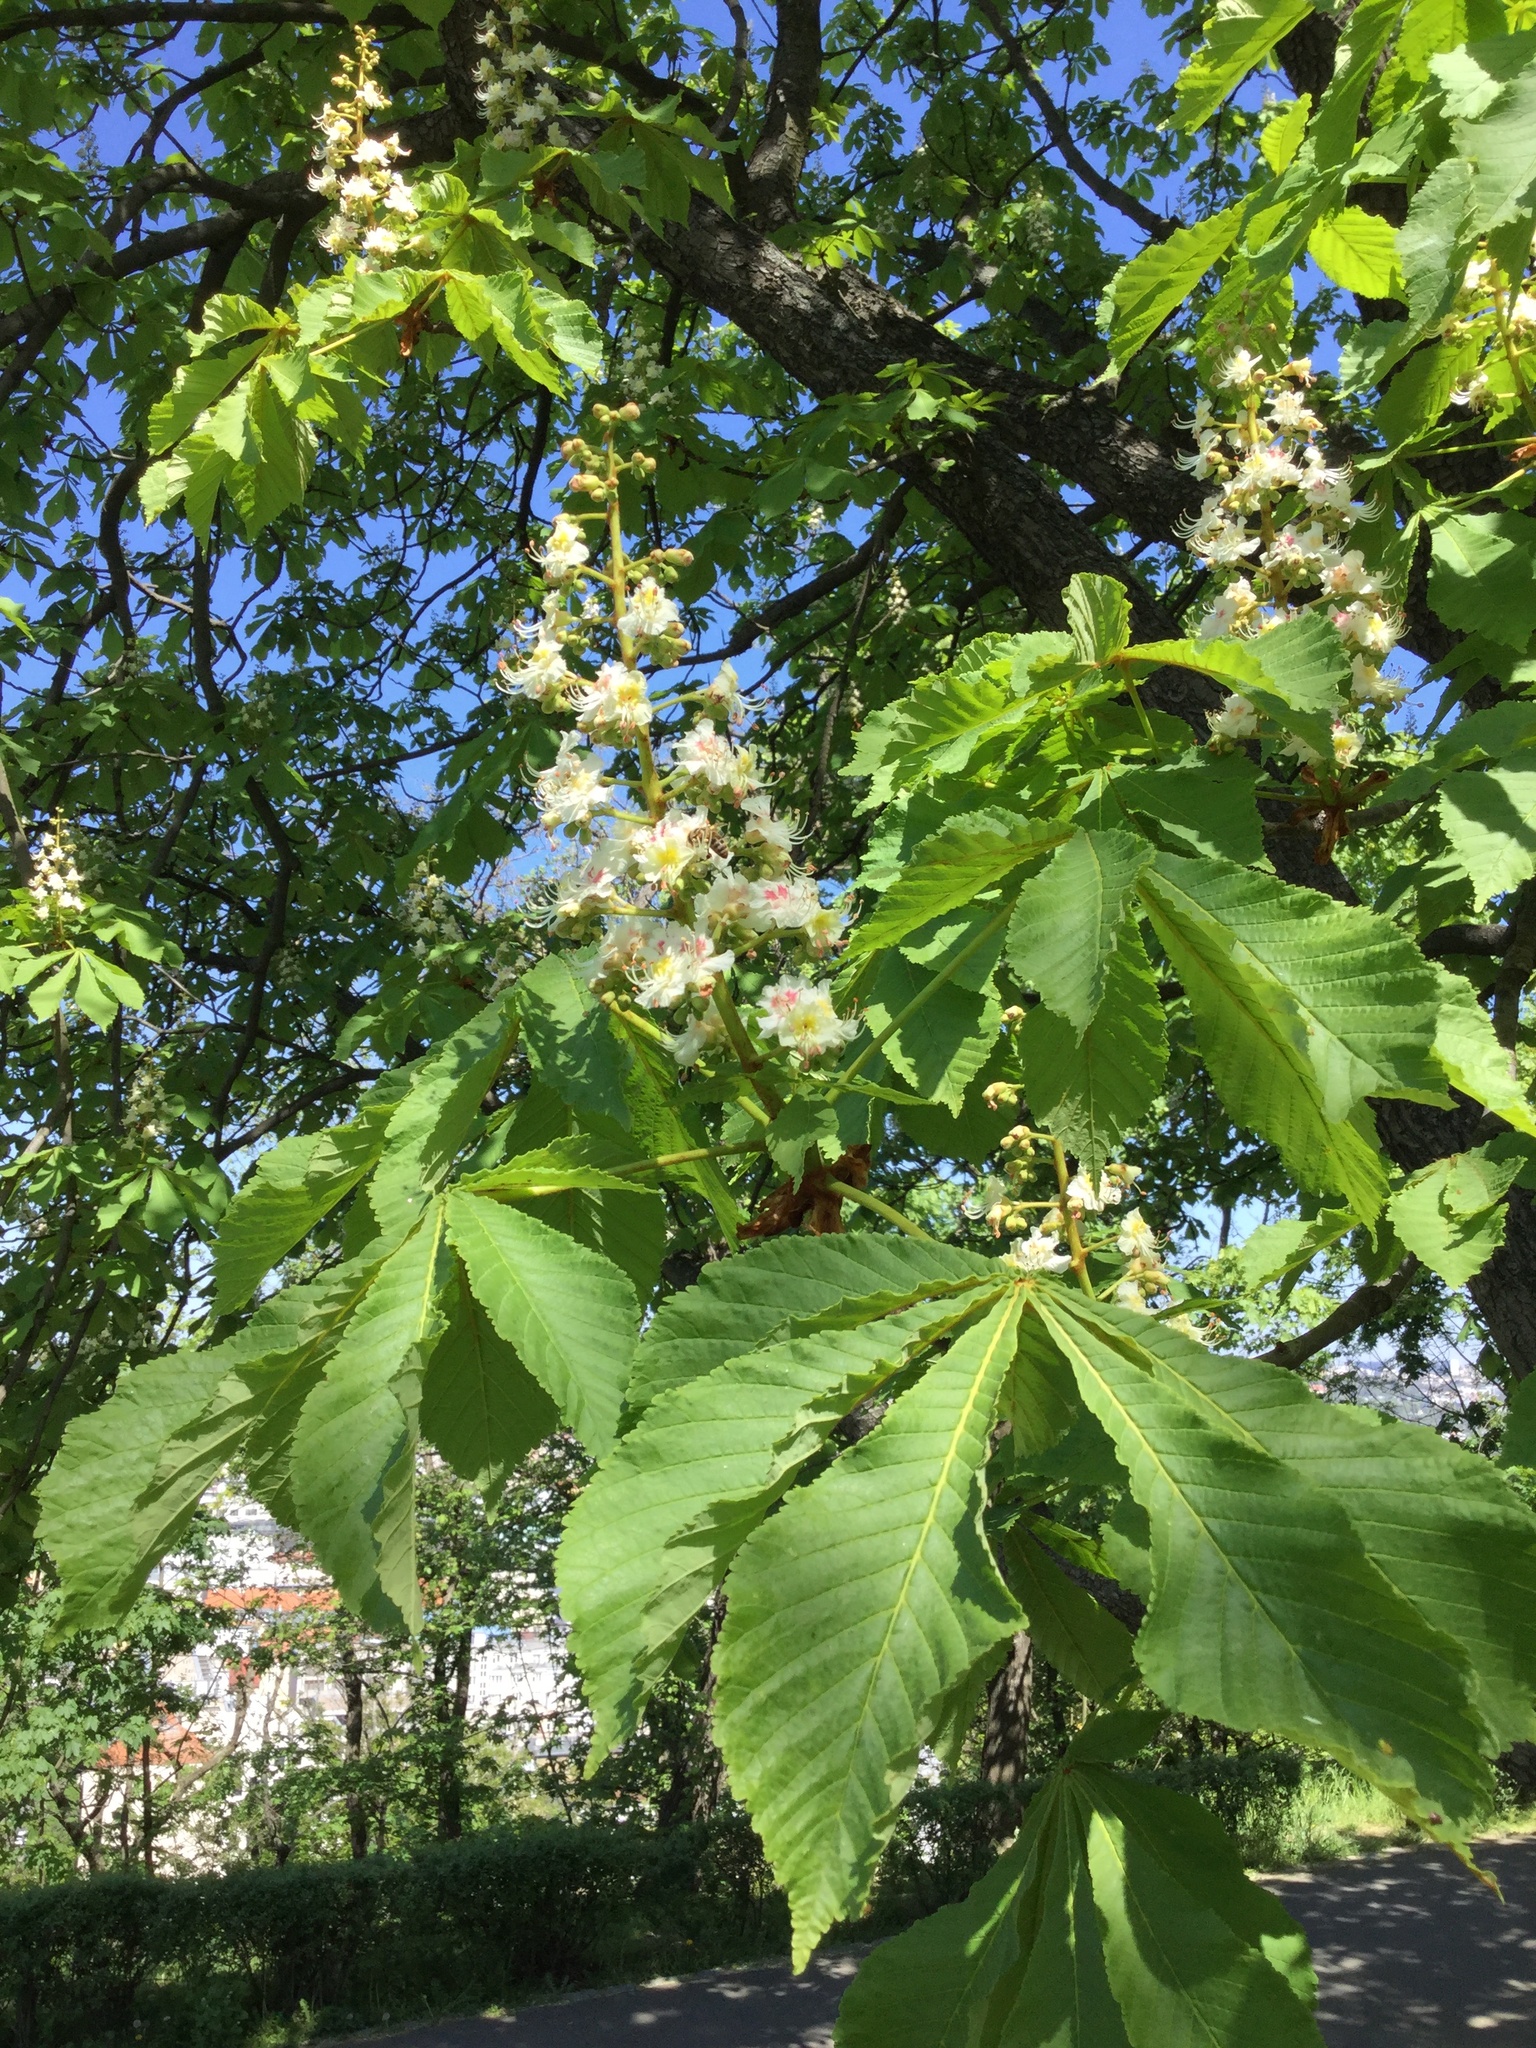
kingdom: Plantae
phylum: Tracheophyta
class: Magnoliopsida
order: Sapindales
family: Sapindaceae
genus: Aesculus
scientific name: Aesculus hippocastanum
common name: Horse-chestnut
